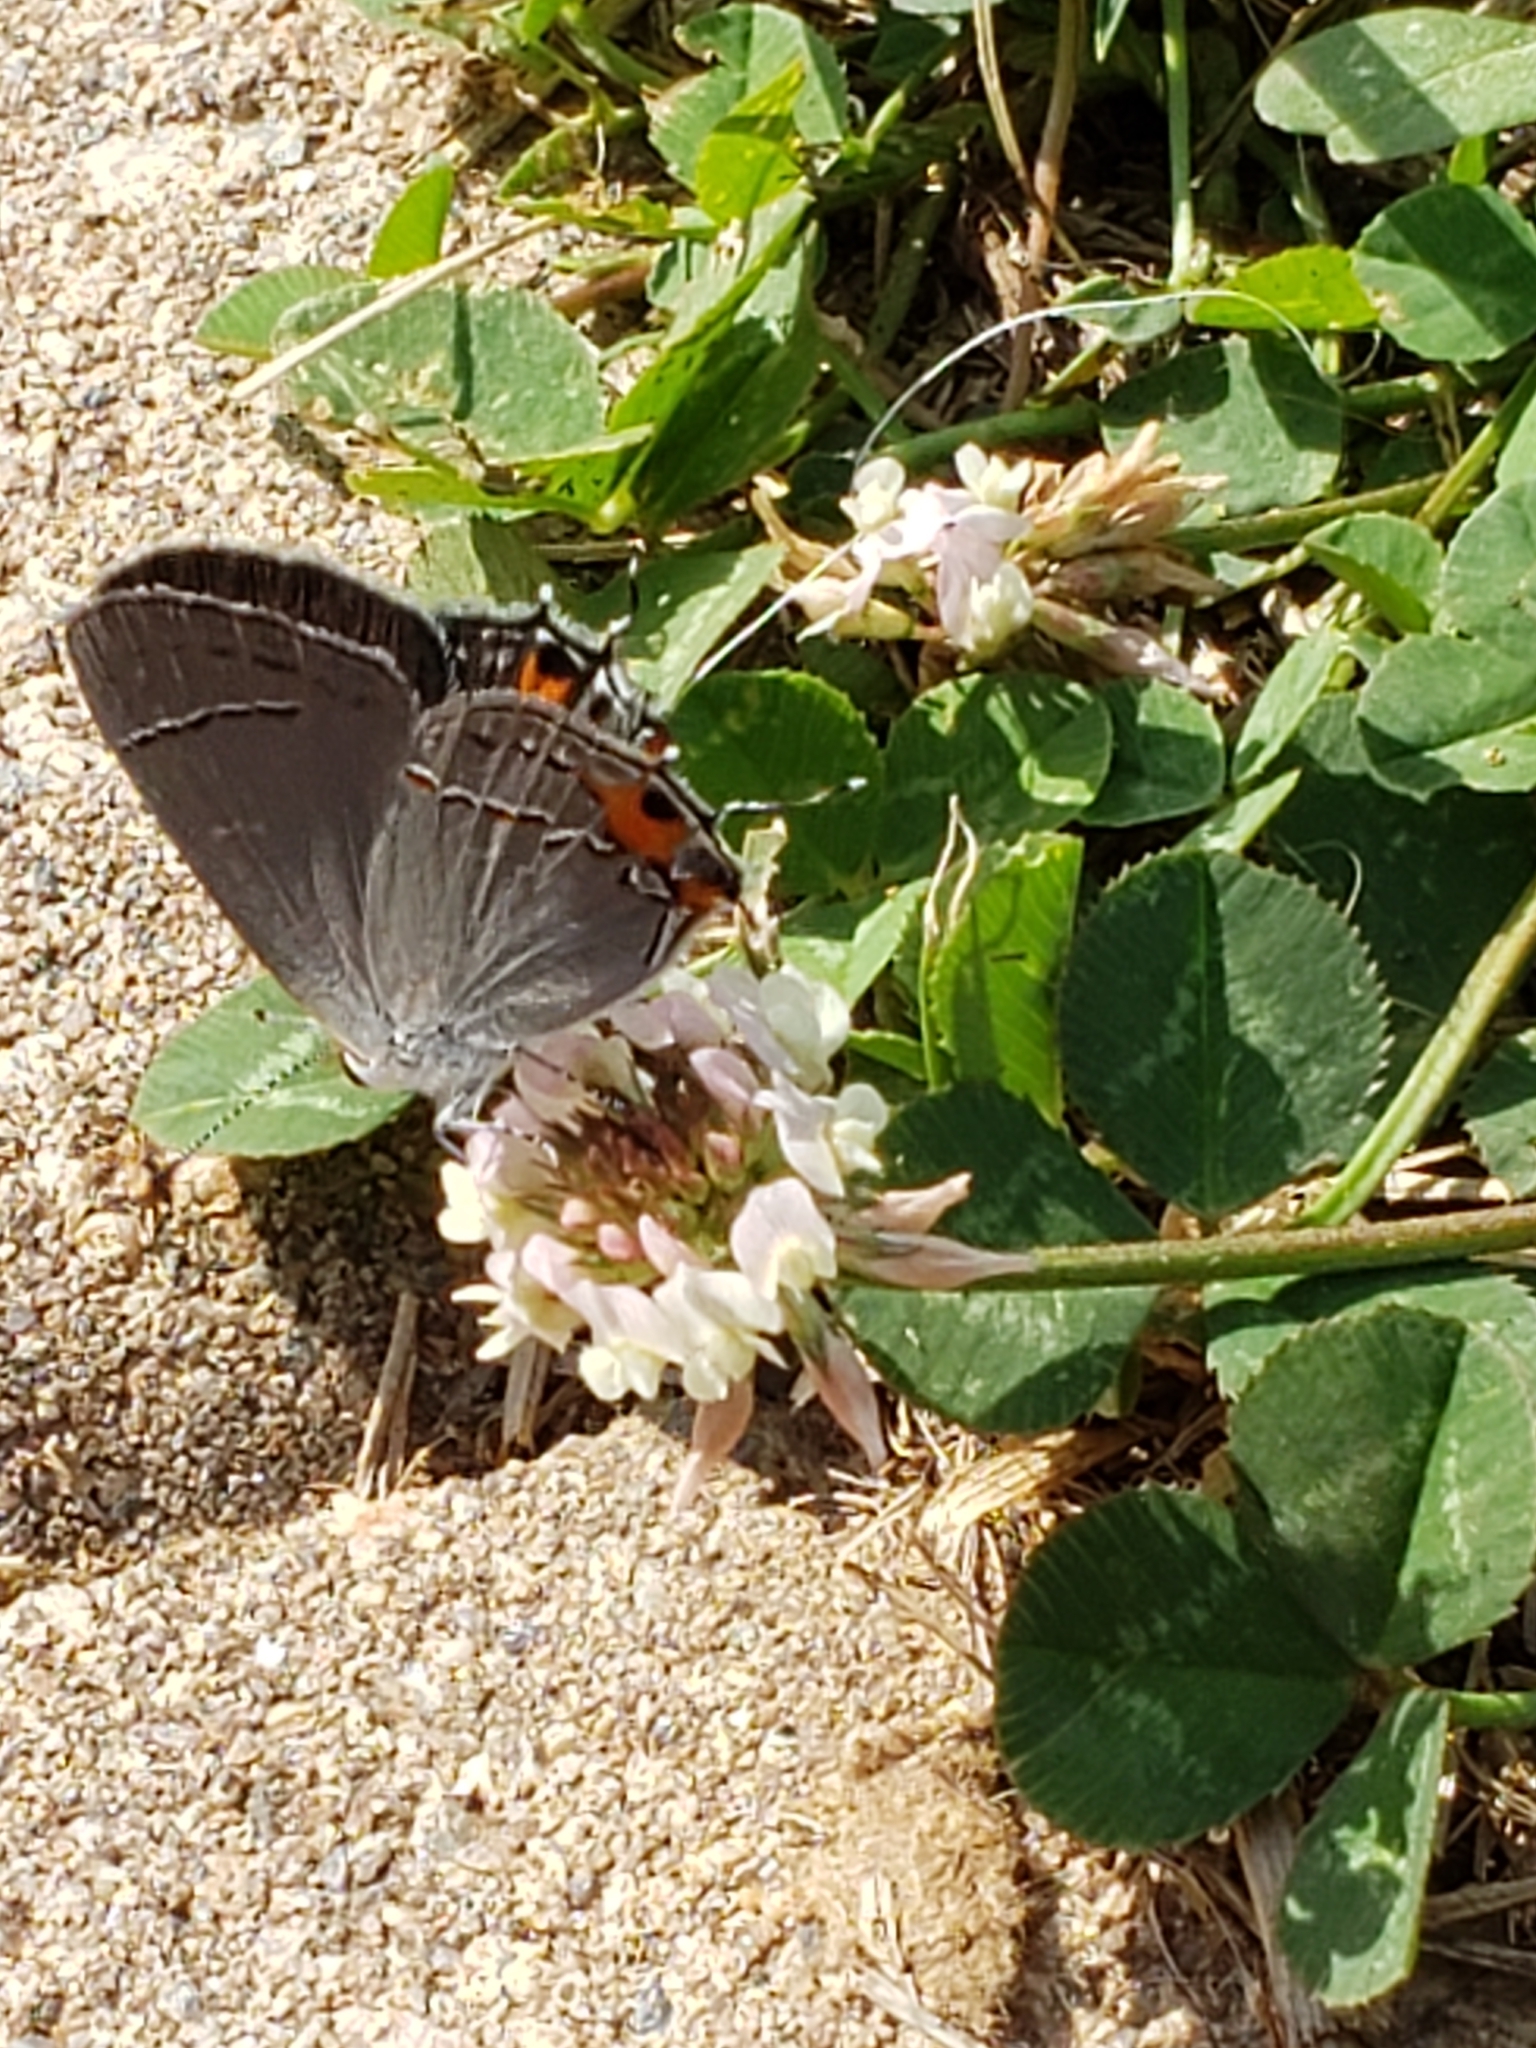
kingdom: Animalia
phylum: Arthropoda
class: Insecta
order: Lepidoptera
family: Lycaenidae
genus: Strymon
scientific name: Strymon melinus
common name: Gray hairstreak
